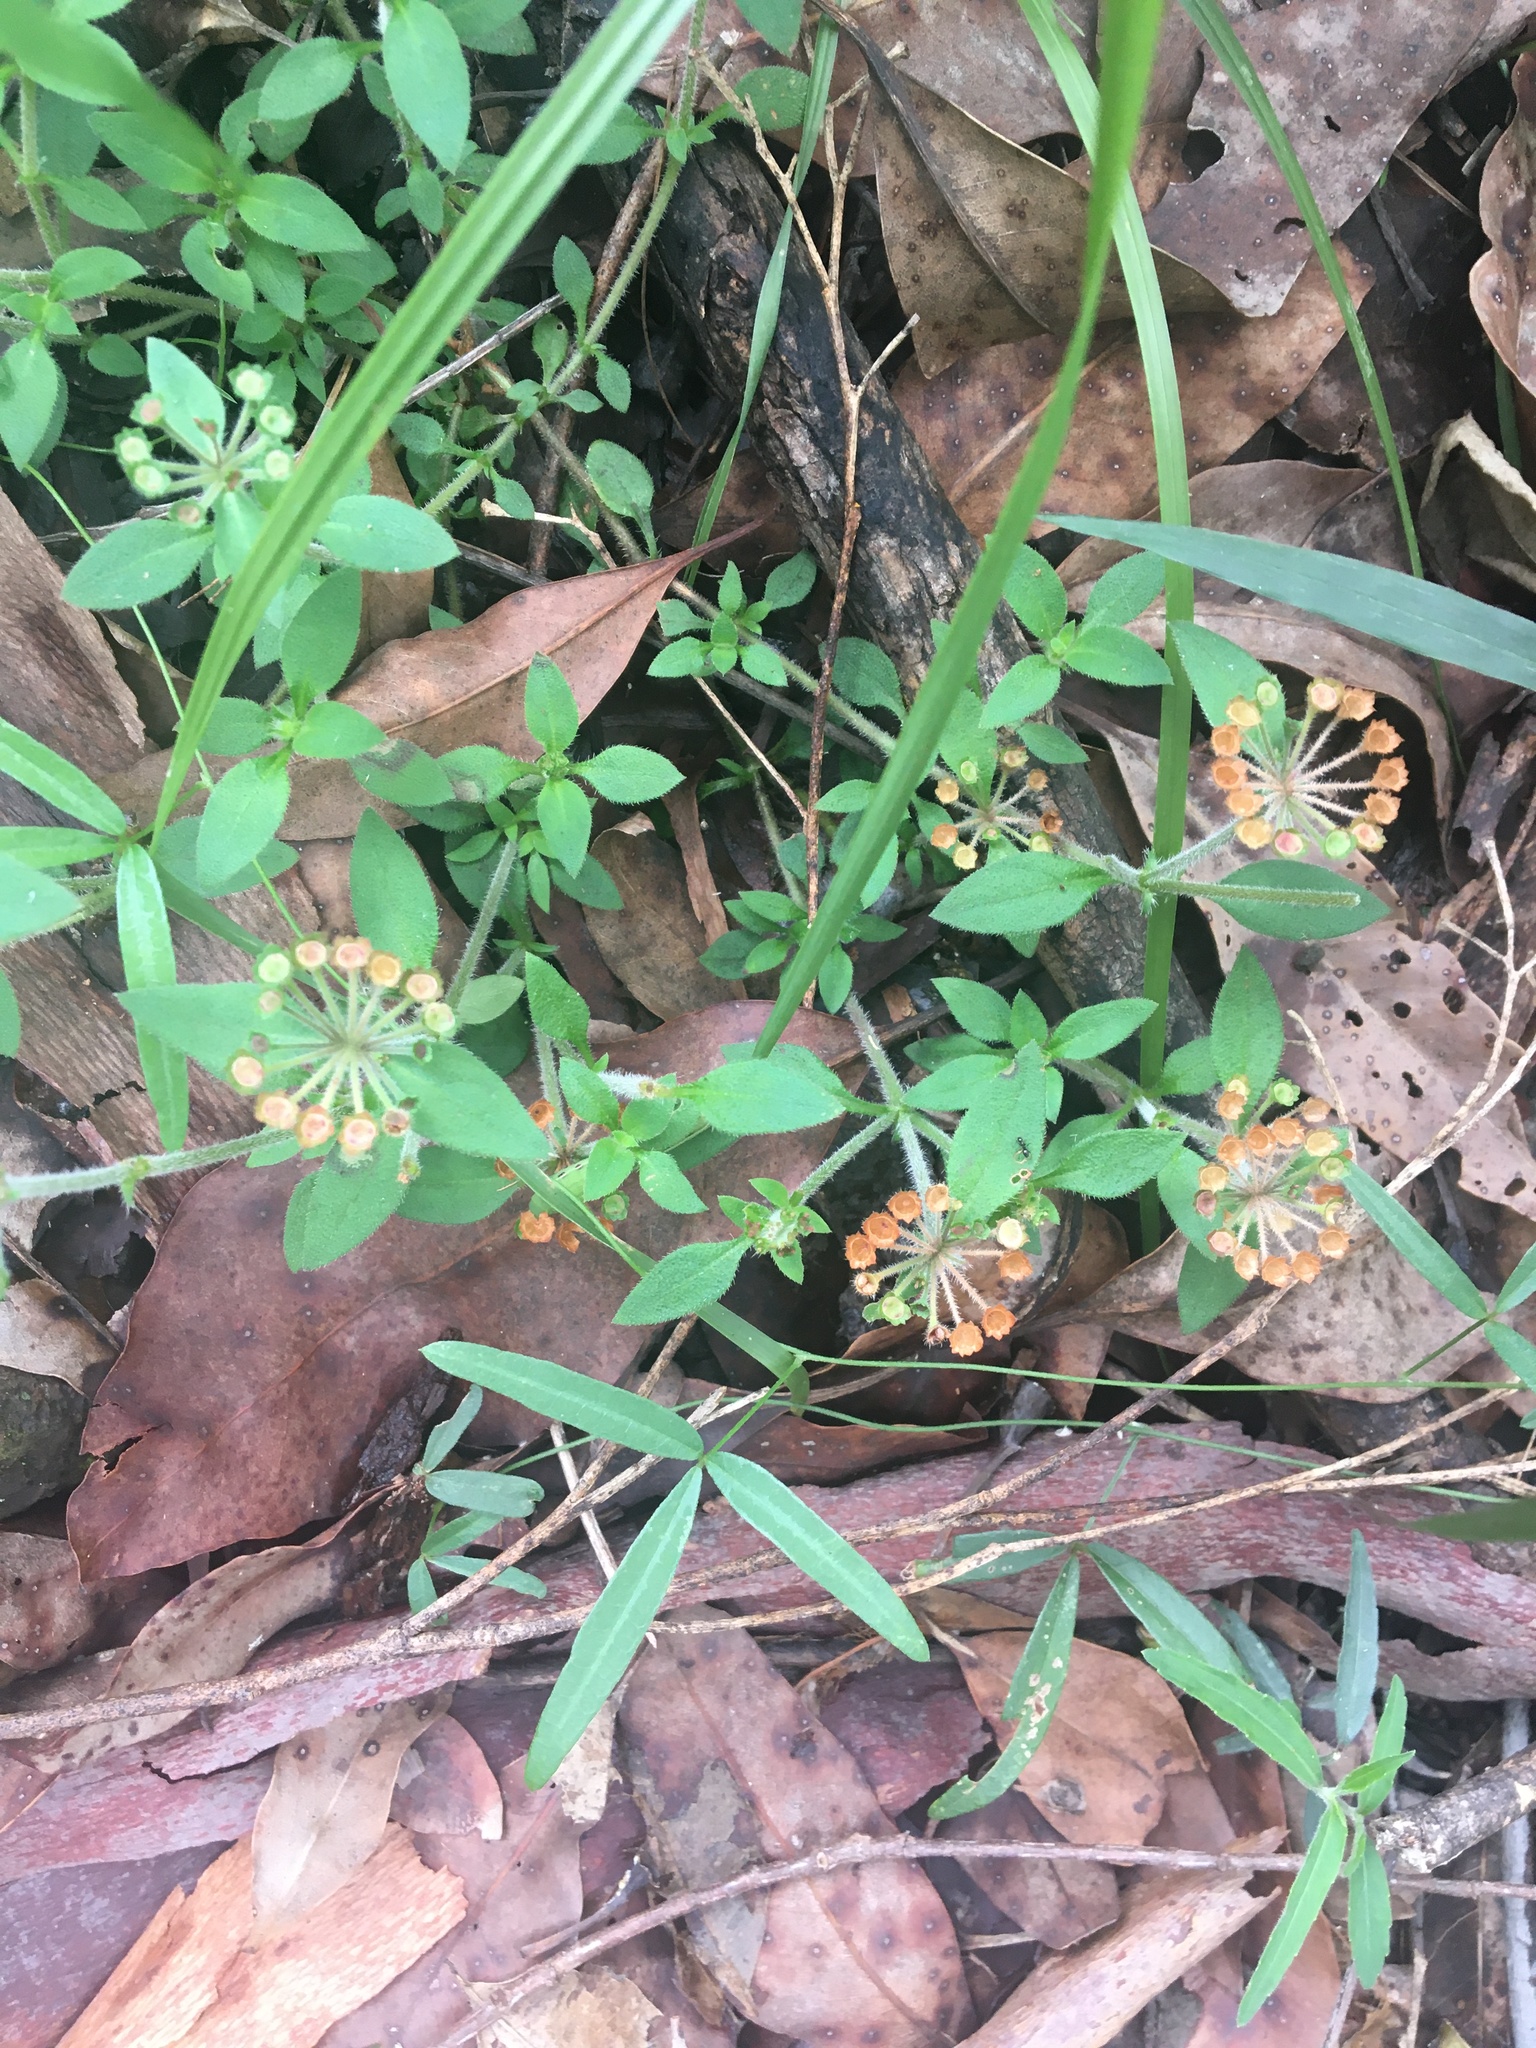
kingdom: Plantae
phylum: Tracheophyta
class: Magnoliopsida
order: Gentianales
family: Rubiaceae
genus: Pomax
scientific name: Pomax umbellata
